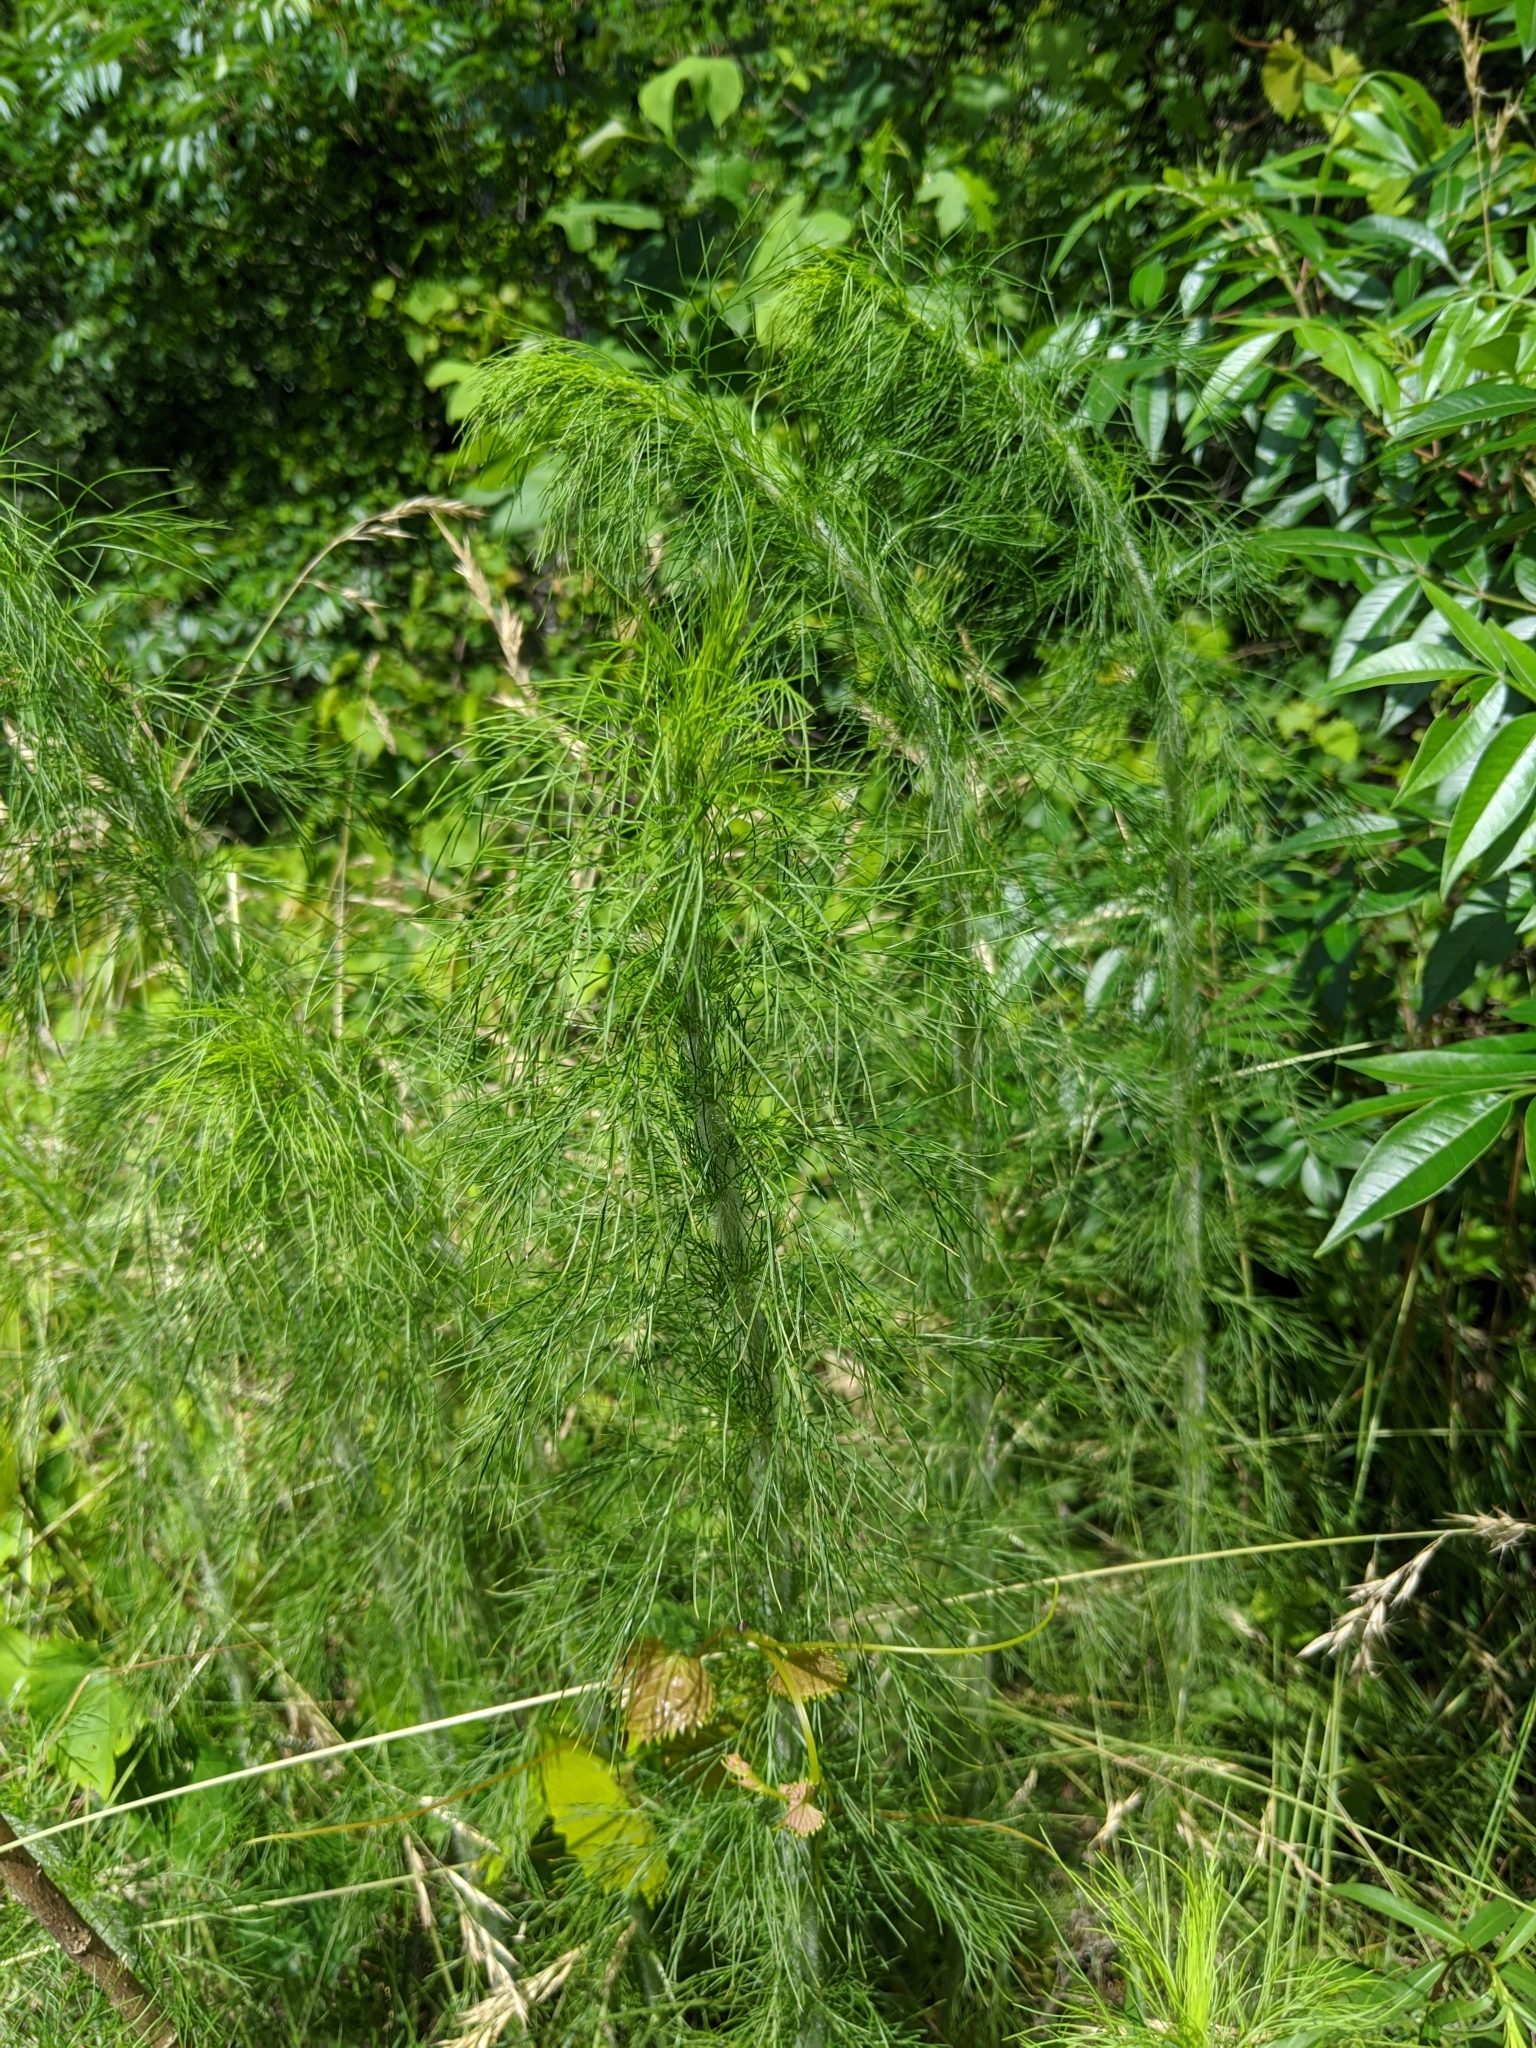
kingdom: Plantae
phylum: Tracheophyta
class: Magnoliopsida
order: Asterales
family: Asteraceae
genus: Eupatorium
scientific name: Eupatorium capillifolium
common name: Dog-fennel
